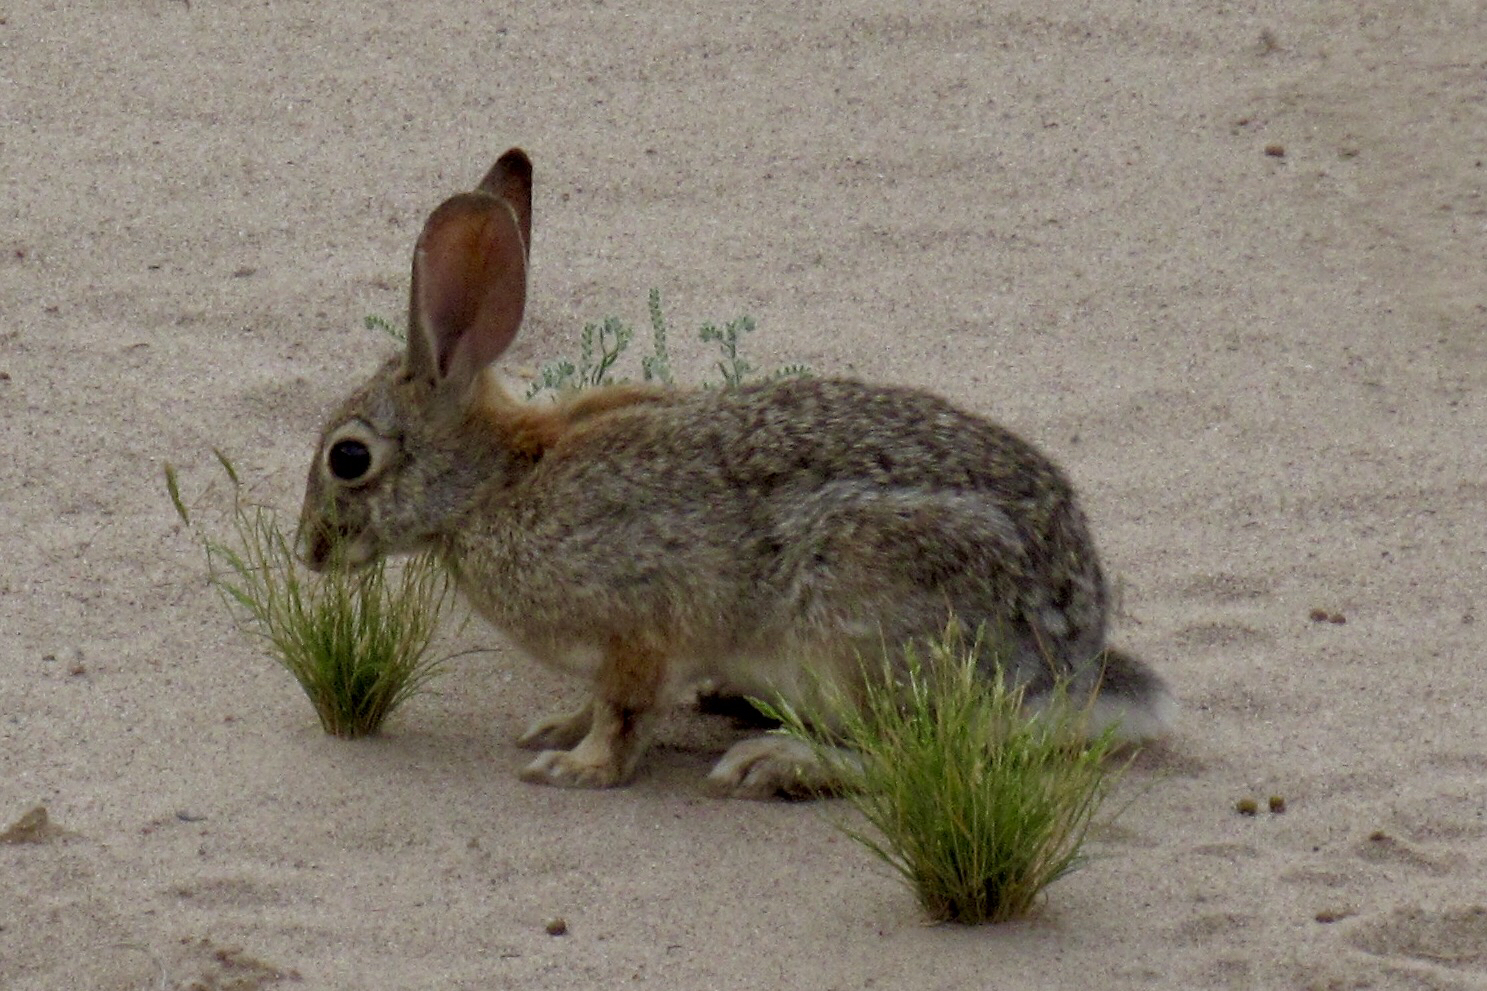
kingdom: Animalia
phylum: Chordata
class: Mammalia
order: Lagomorpha
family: Leporidae
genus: Sylvilagus
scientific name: Sylvilagus audubonii
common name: Desert cottontail
